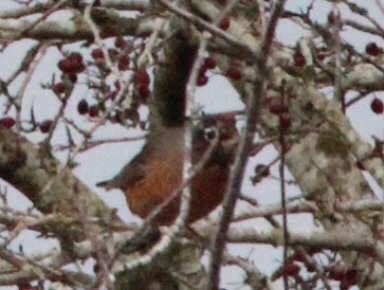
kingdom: Animalia
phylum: Chordata
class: Aves
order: Passeriformes
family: Turdidae
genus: Turdus
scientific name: Turdus migratorius
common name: American robin
